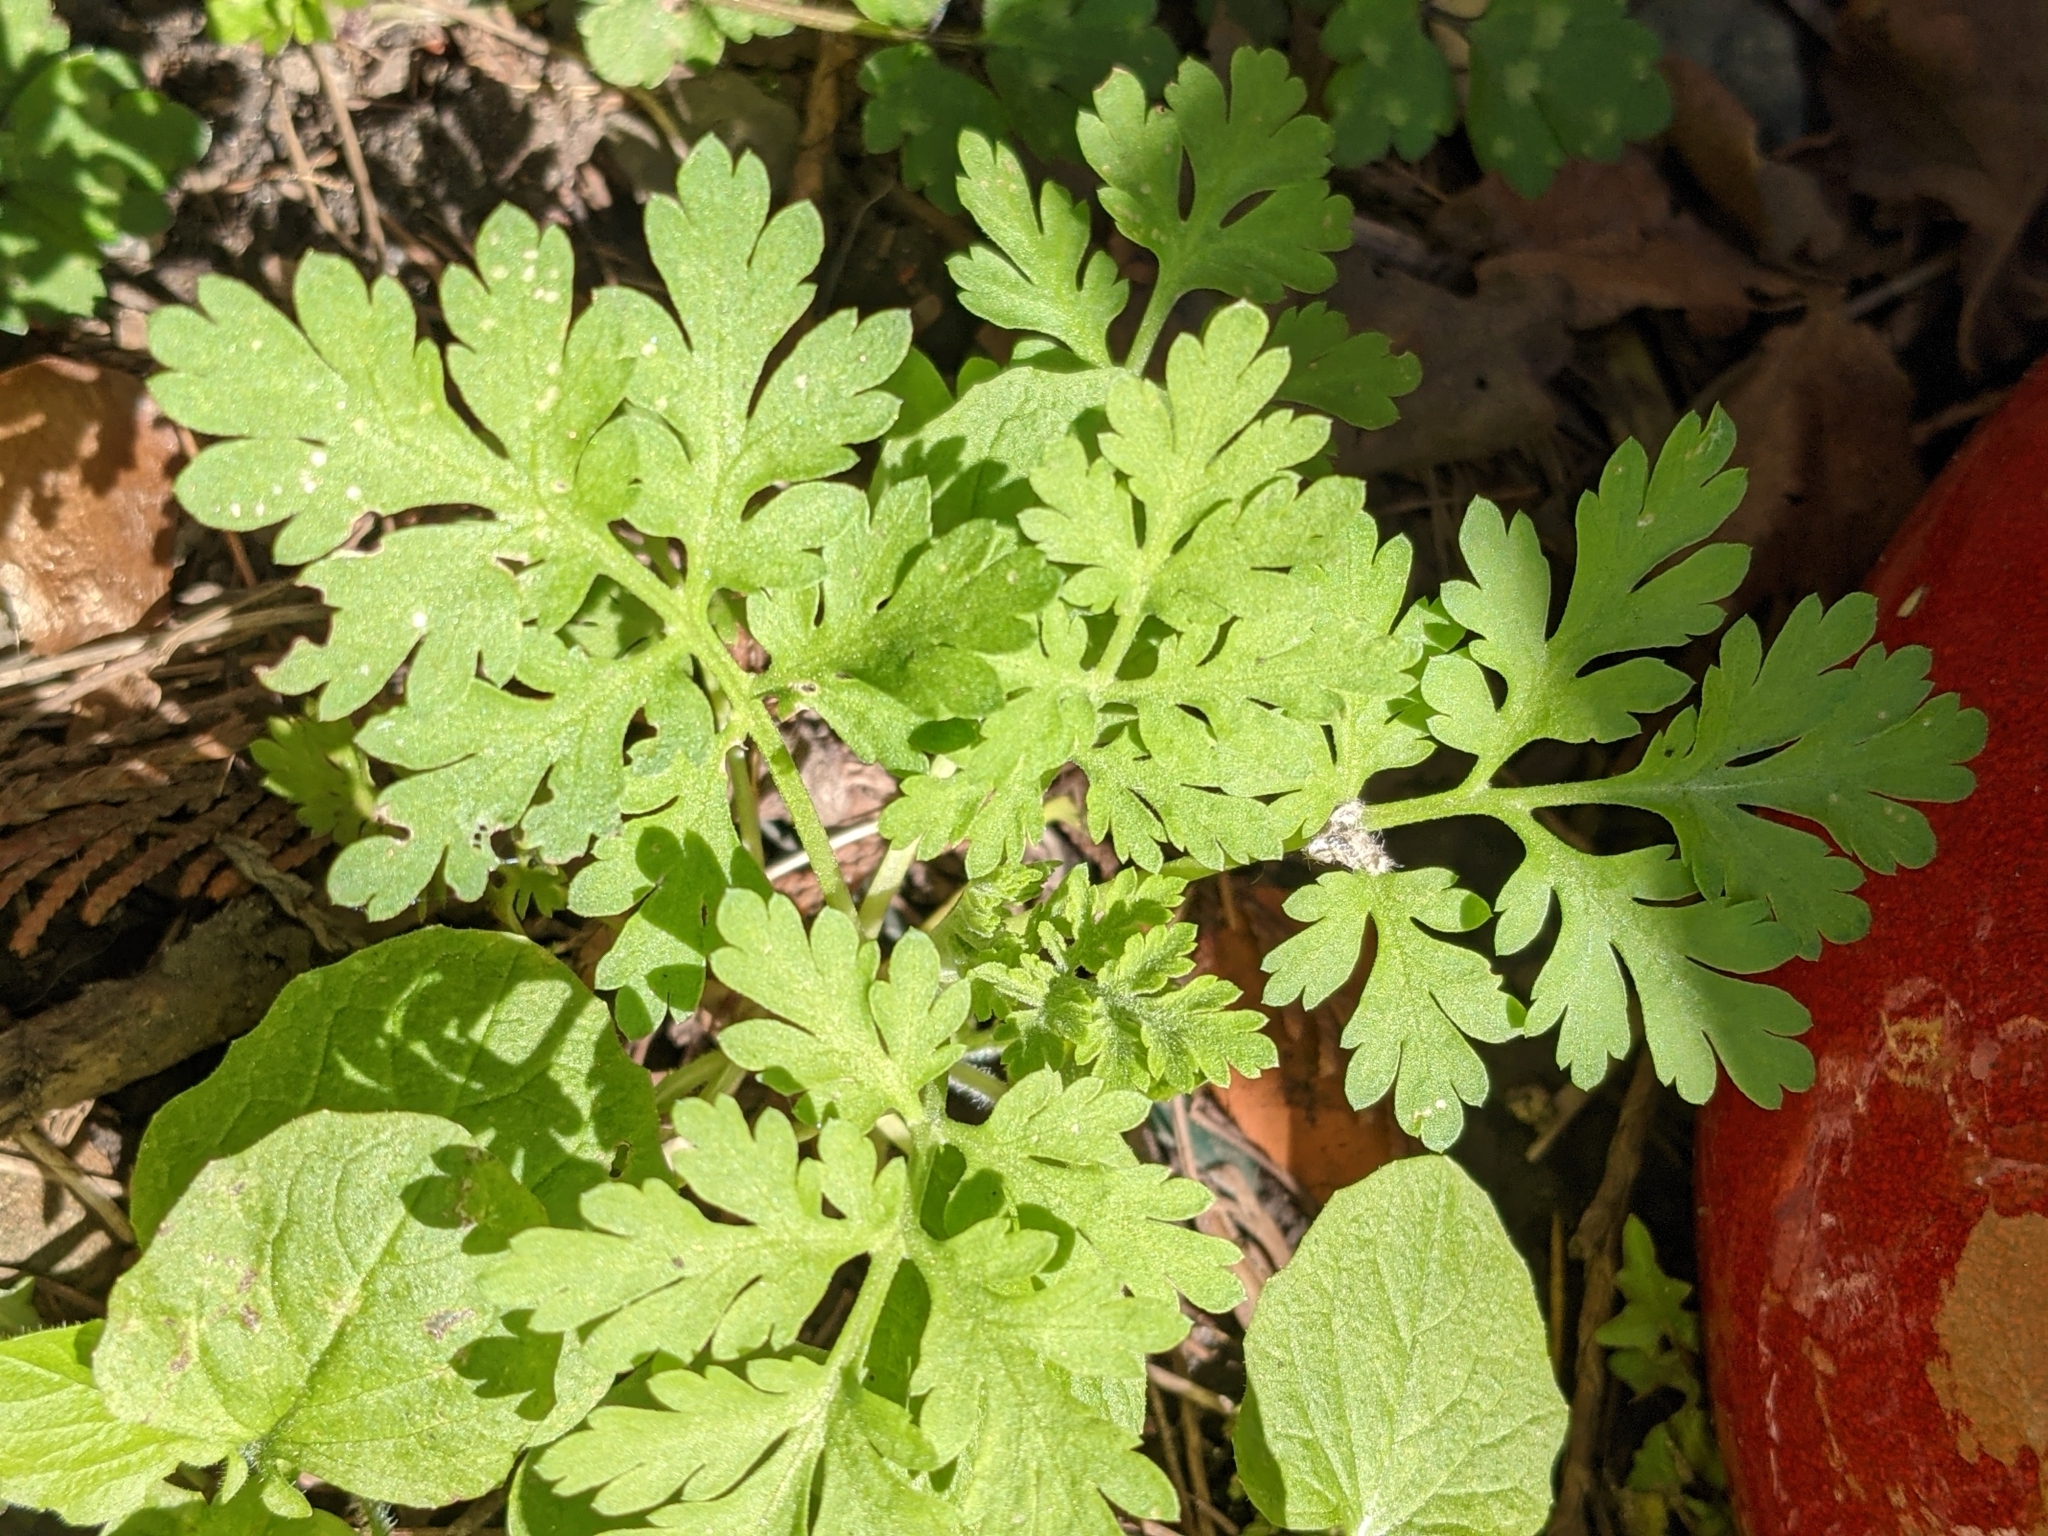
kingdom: Plantae
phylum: Tracheophyta
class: Magnoliopsida
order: Asterales
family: Asteraceae
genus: Tanacetum
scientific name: Tanacetum parthenium
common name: Feverfew
